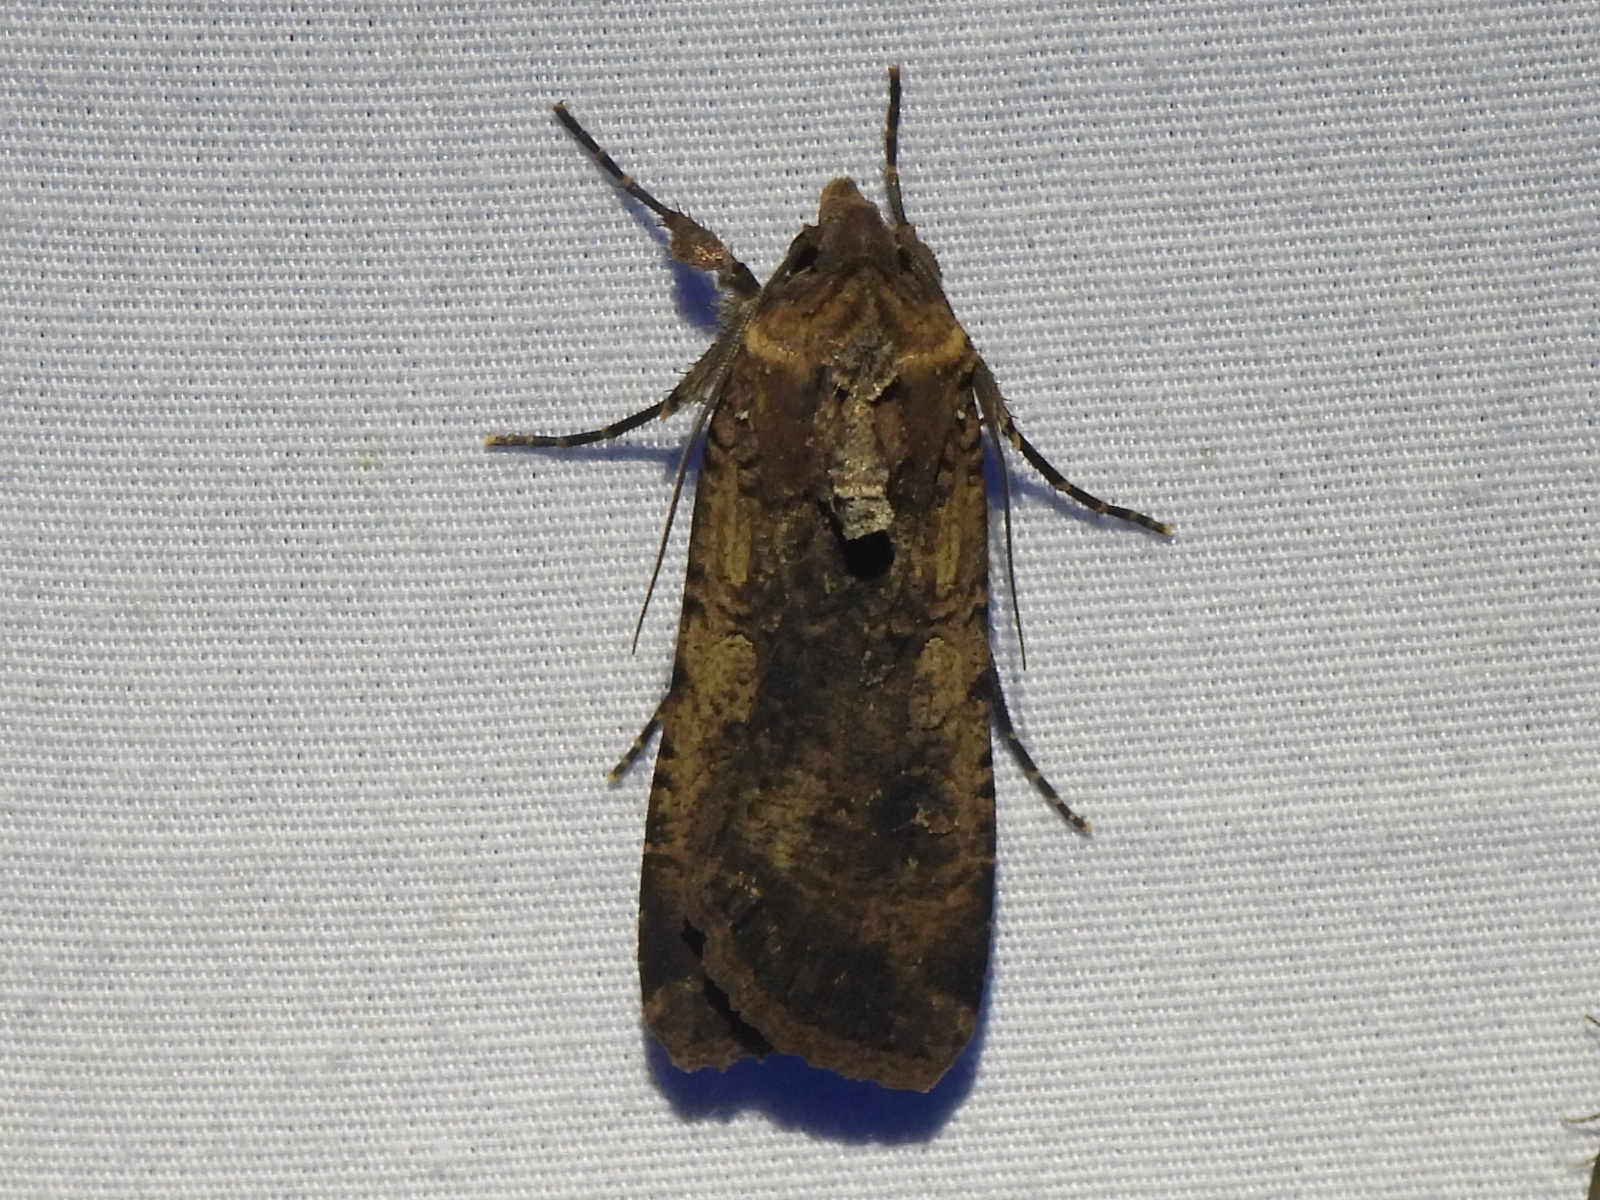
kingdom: Animalia
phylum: Arthropoda
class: Insecta
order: Lepidoptera
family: Noctuidae
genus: Feltia
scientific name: Feltia subterranea
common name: Granulate cutworm
